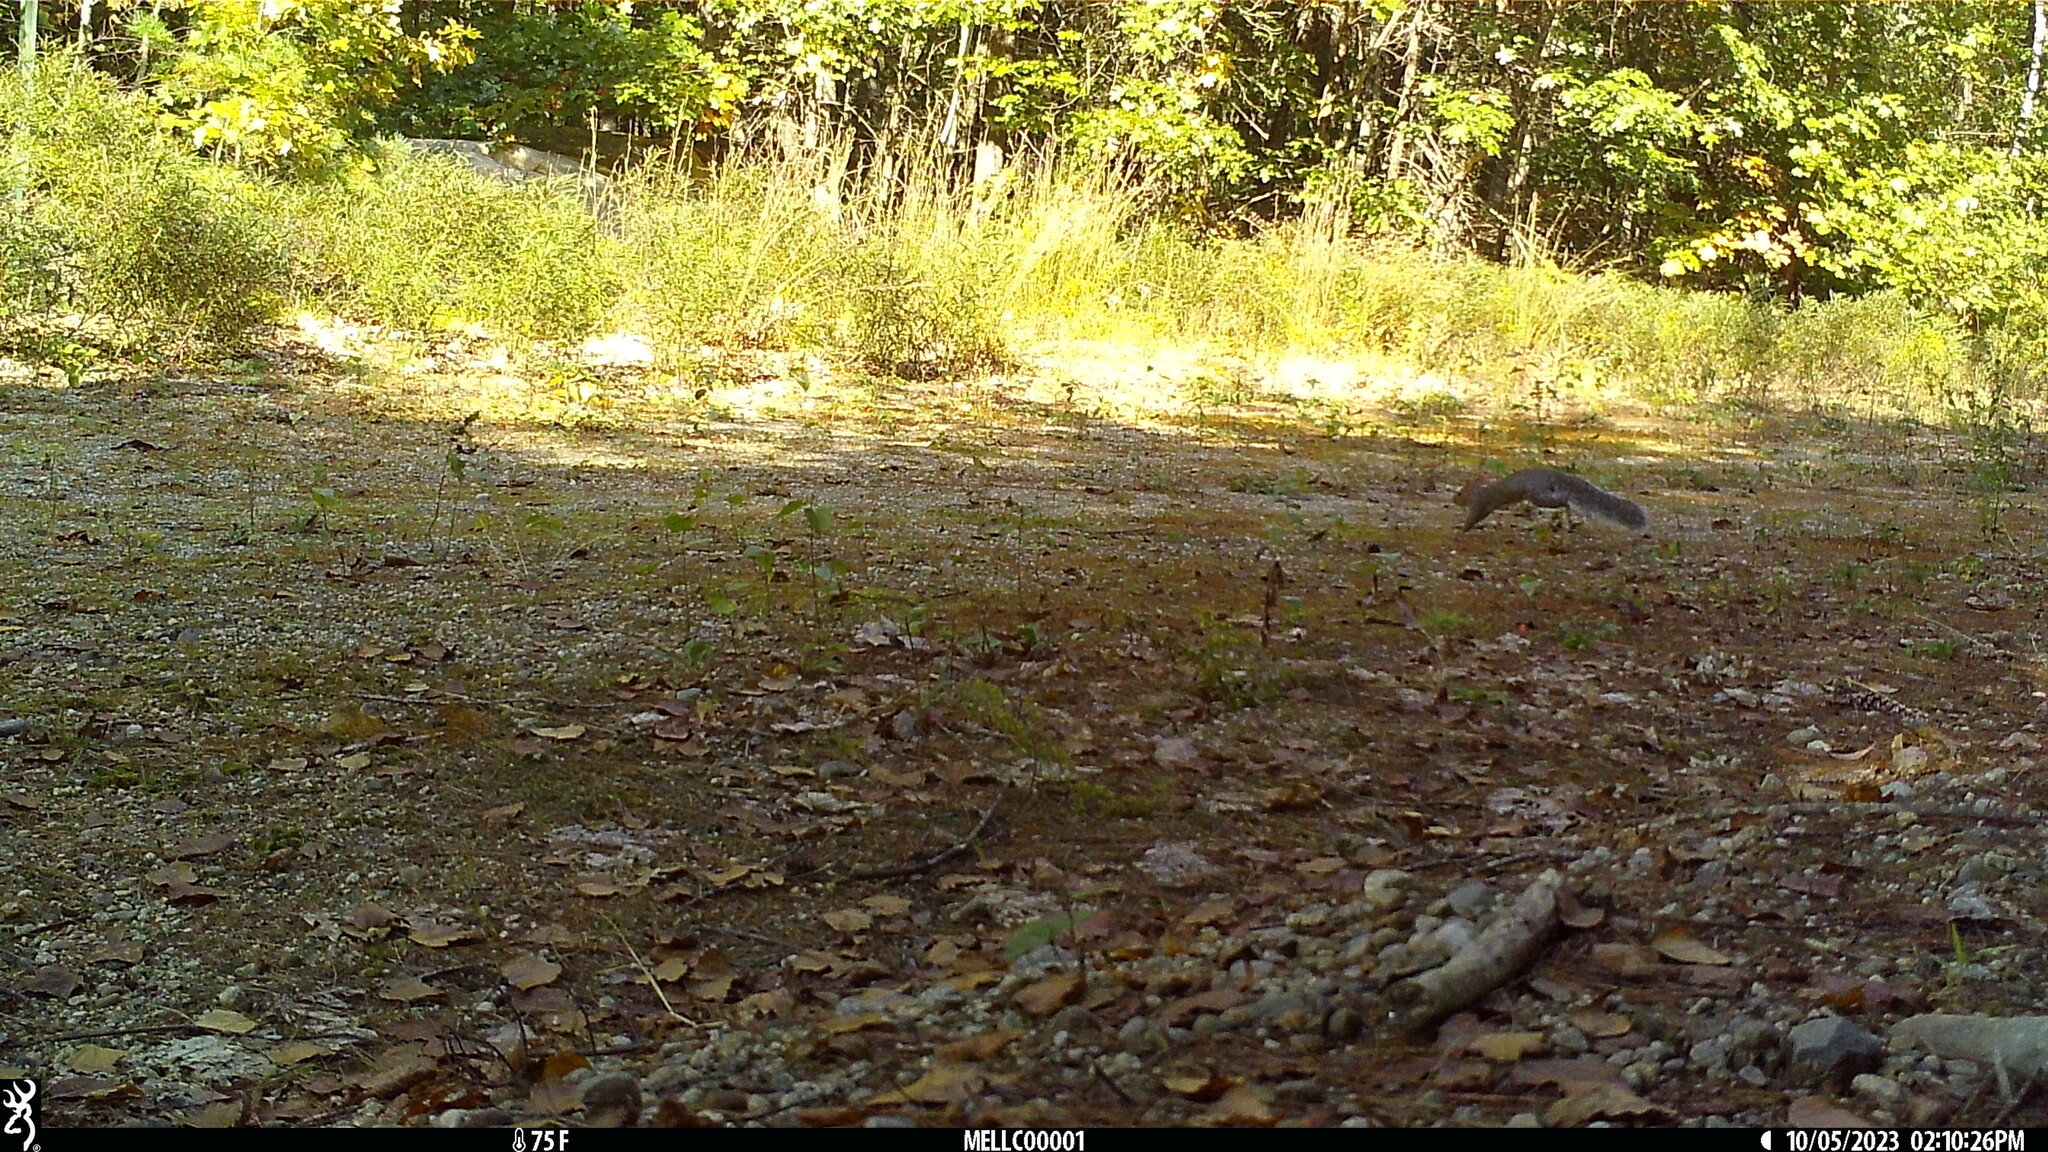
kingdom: Animalia
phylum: Chordata
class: Mammalia
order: Rodentia
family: Sciuridae
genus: Sciurus
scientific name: Sciurus carolinensis
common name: Eastern gray squirrel
